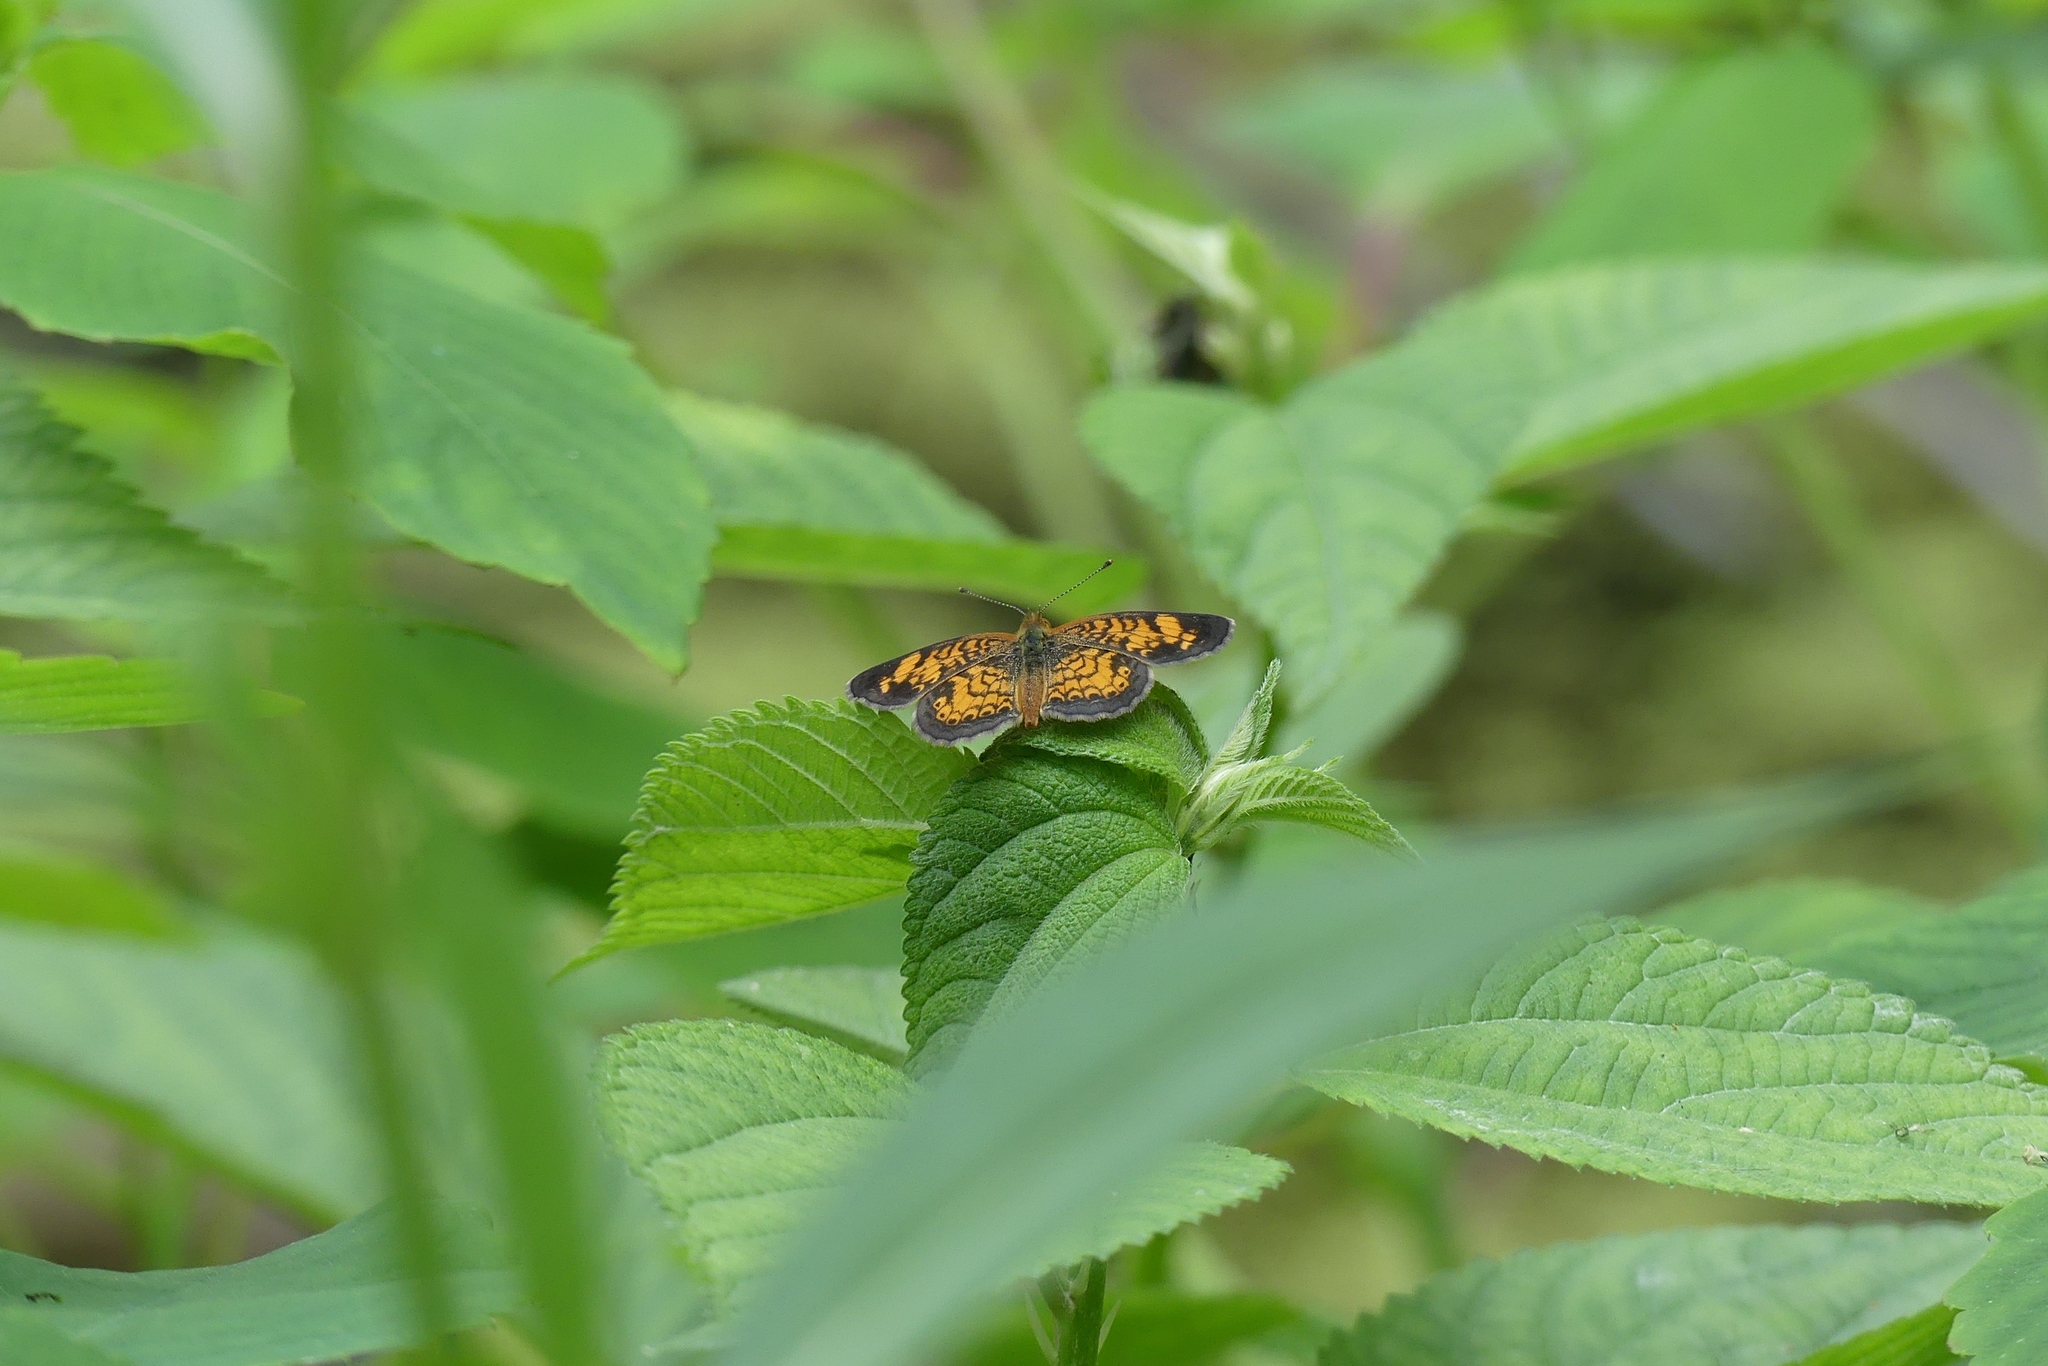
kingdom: Animalia
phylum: Arthropoda
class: Insecta
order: Lepidoptera
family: Nymphalidae
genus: Phyciodes
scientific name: Phyciodes tharos
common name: Pearl crescent
